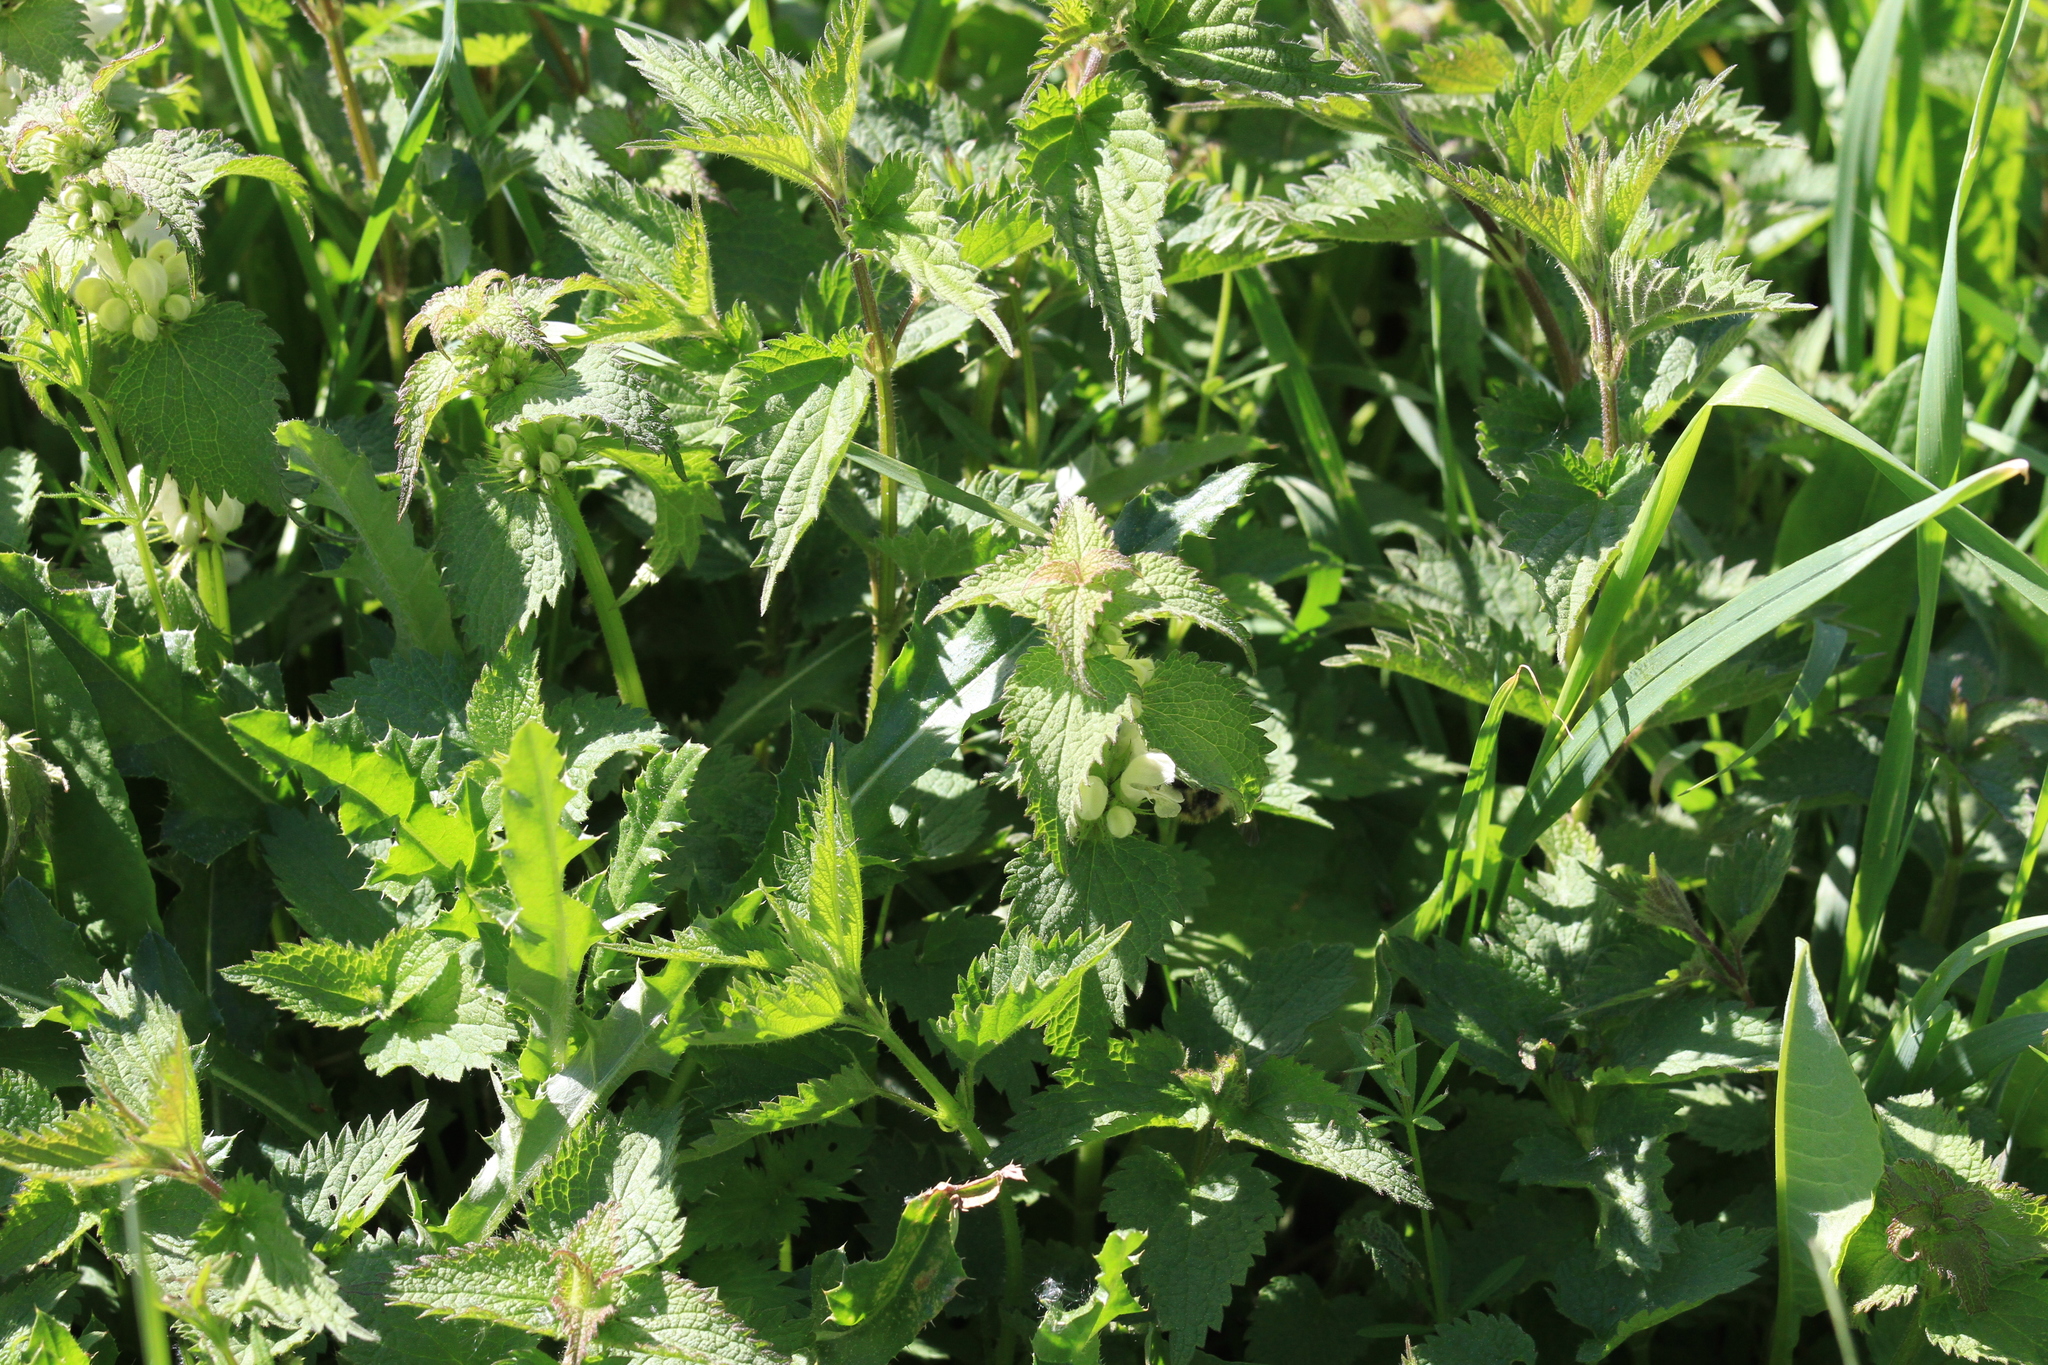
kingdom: Plantae
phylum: Tracheophyta
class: Magnoliopsida
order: Lamiales
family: Lamiaceae
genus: Lamium
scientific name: Lamium album
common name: White dead-nettle
